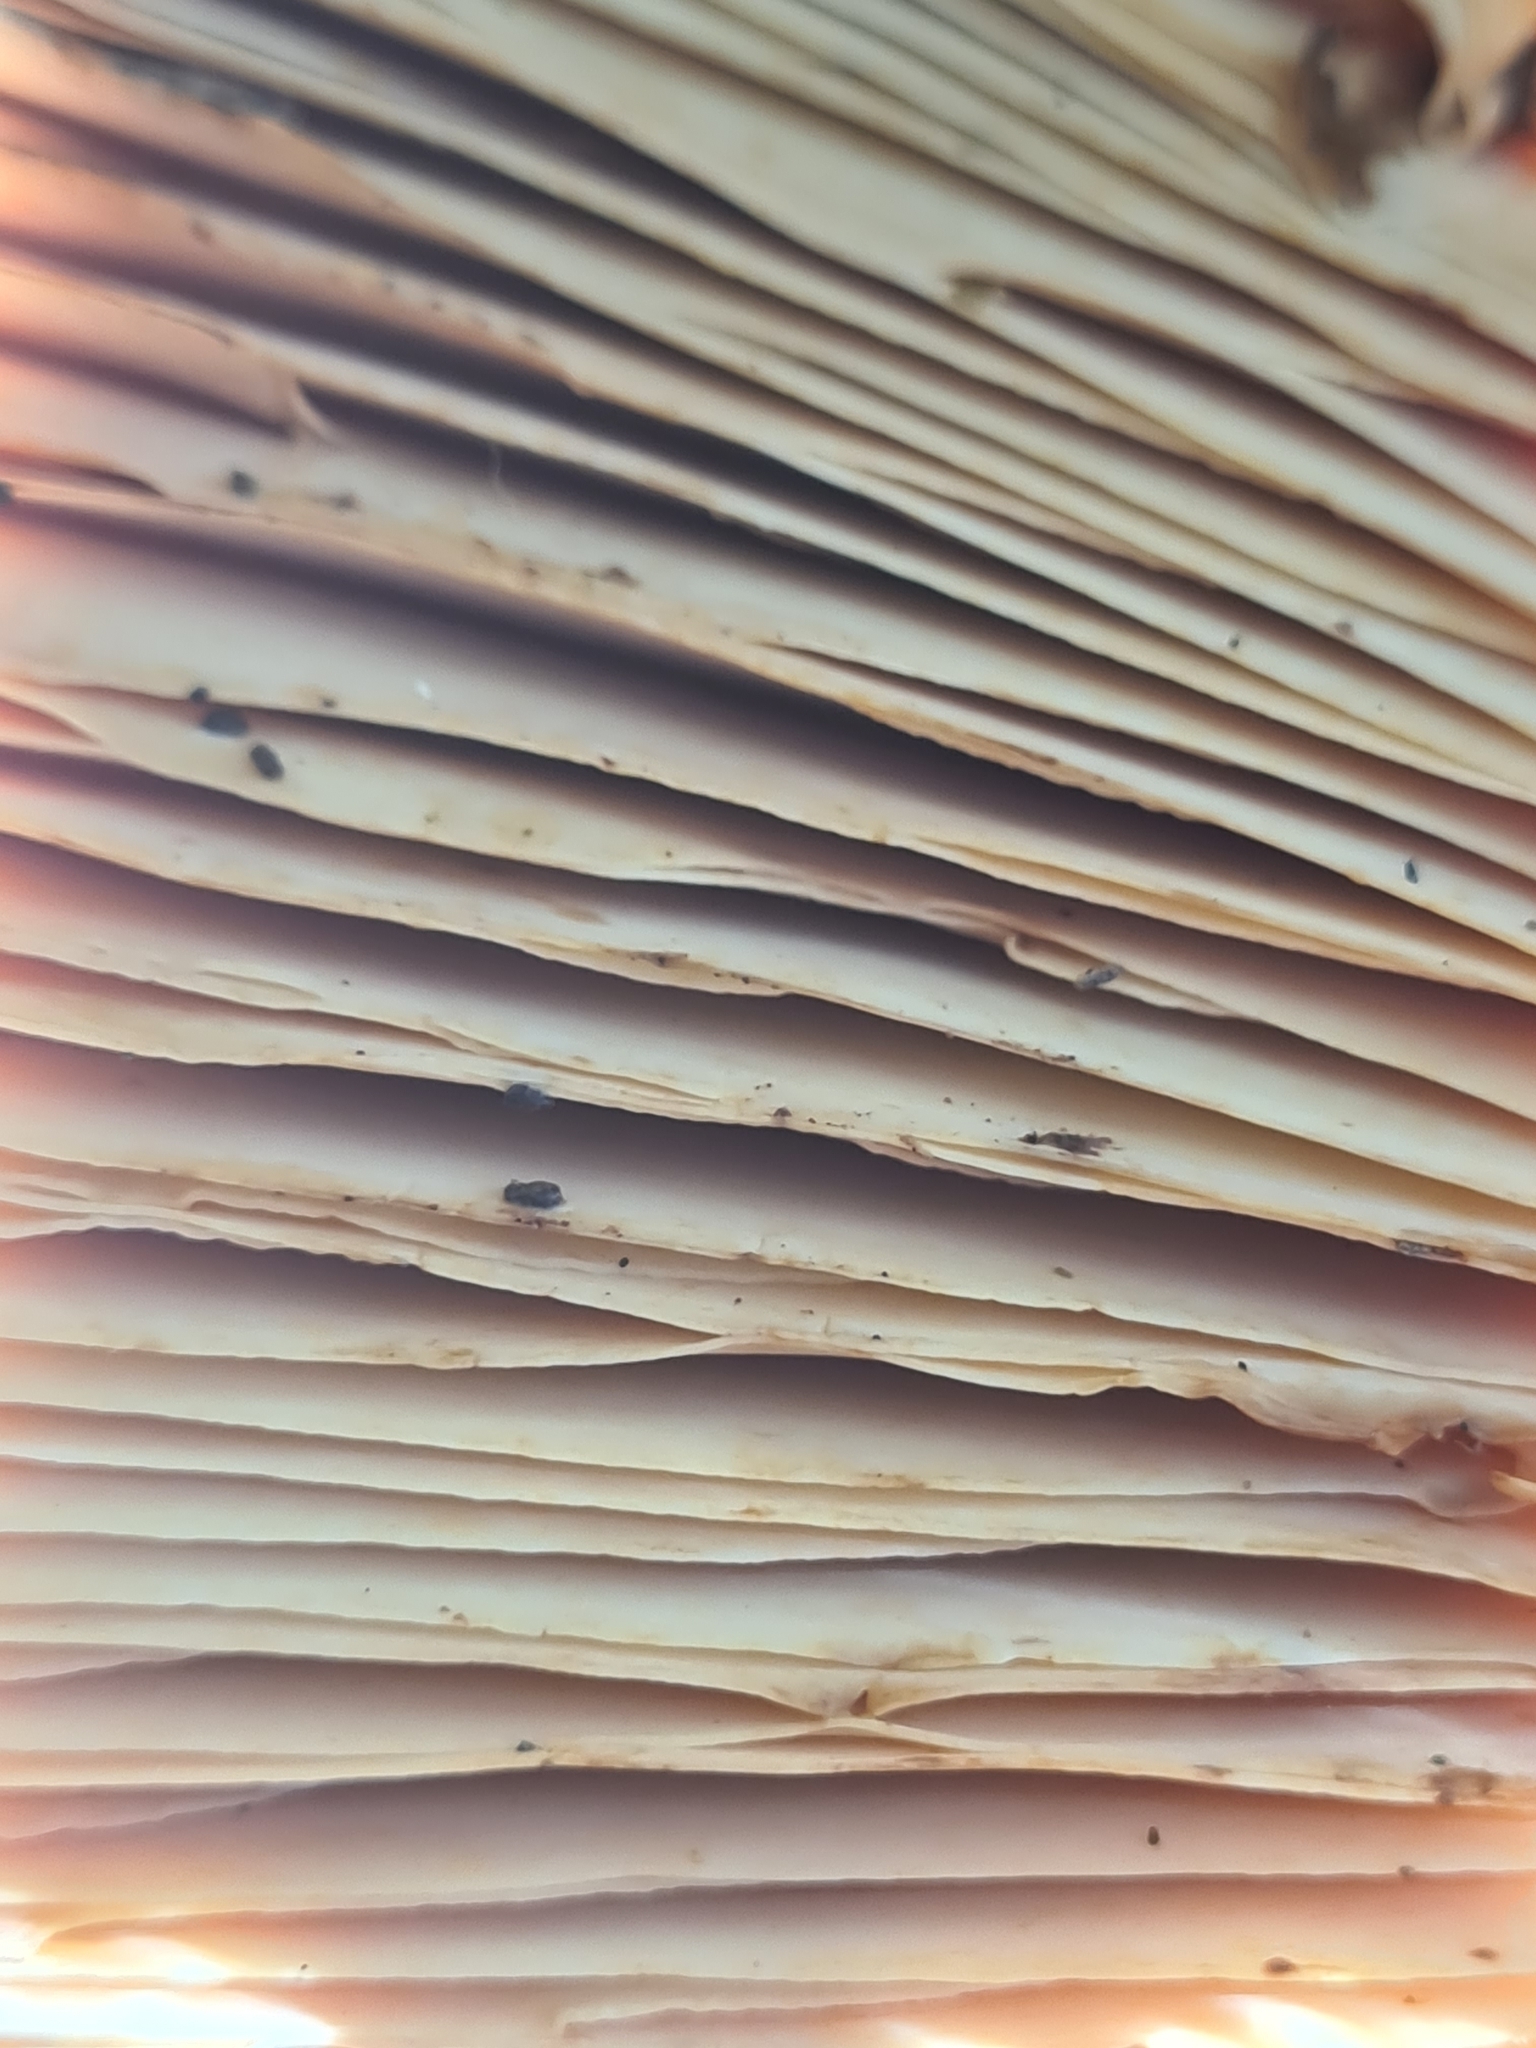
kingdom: Fungi
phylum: Basidiomycota
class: Agaricomycetes
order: Boletales
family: Tapinellaceae
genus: Tapinella
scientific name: Tapinella atrotomentosa
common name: Velvet rollrim
